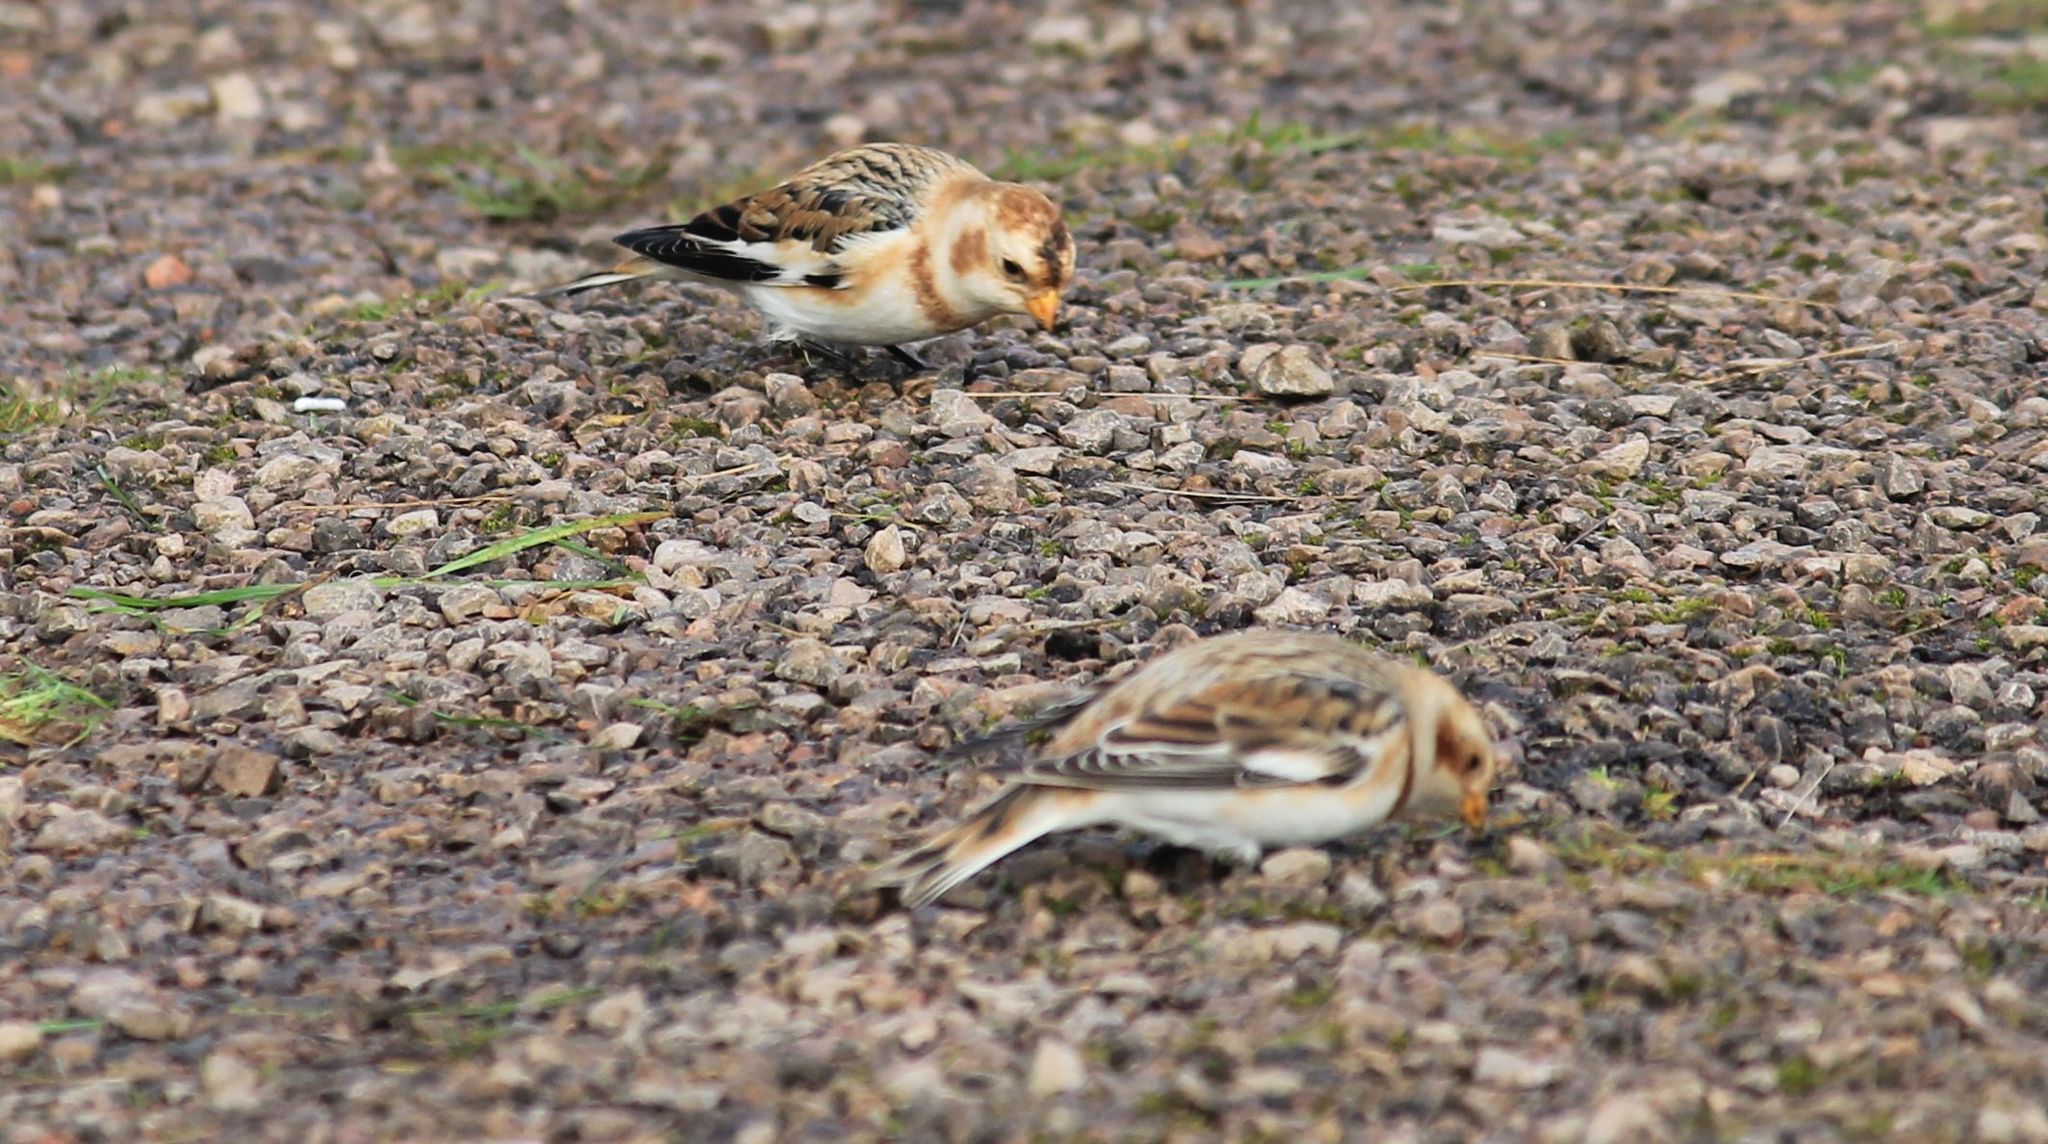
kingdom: Animalia
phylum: Chordata
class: Aves
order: Passeriformes
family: Calcariidae
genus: Plectrophenax
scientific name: Plectrophenax nivalis
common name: Snow bunting
